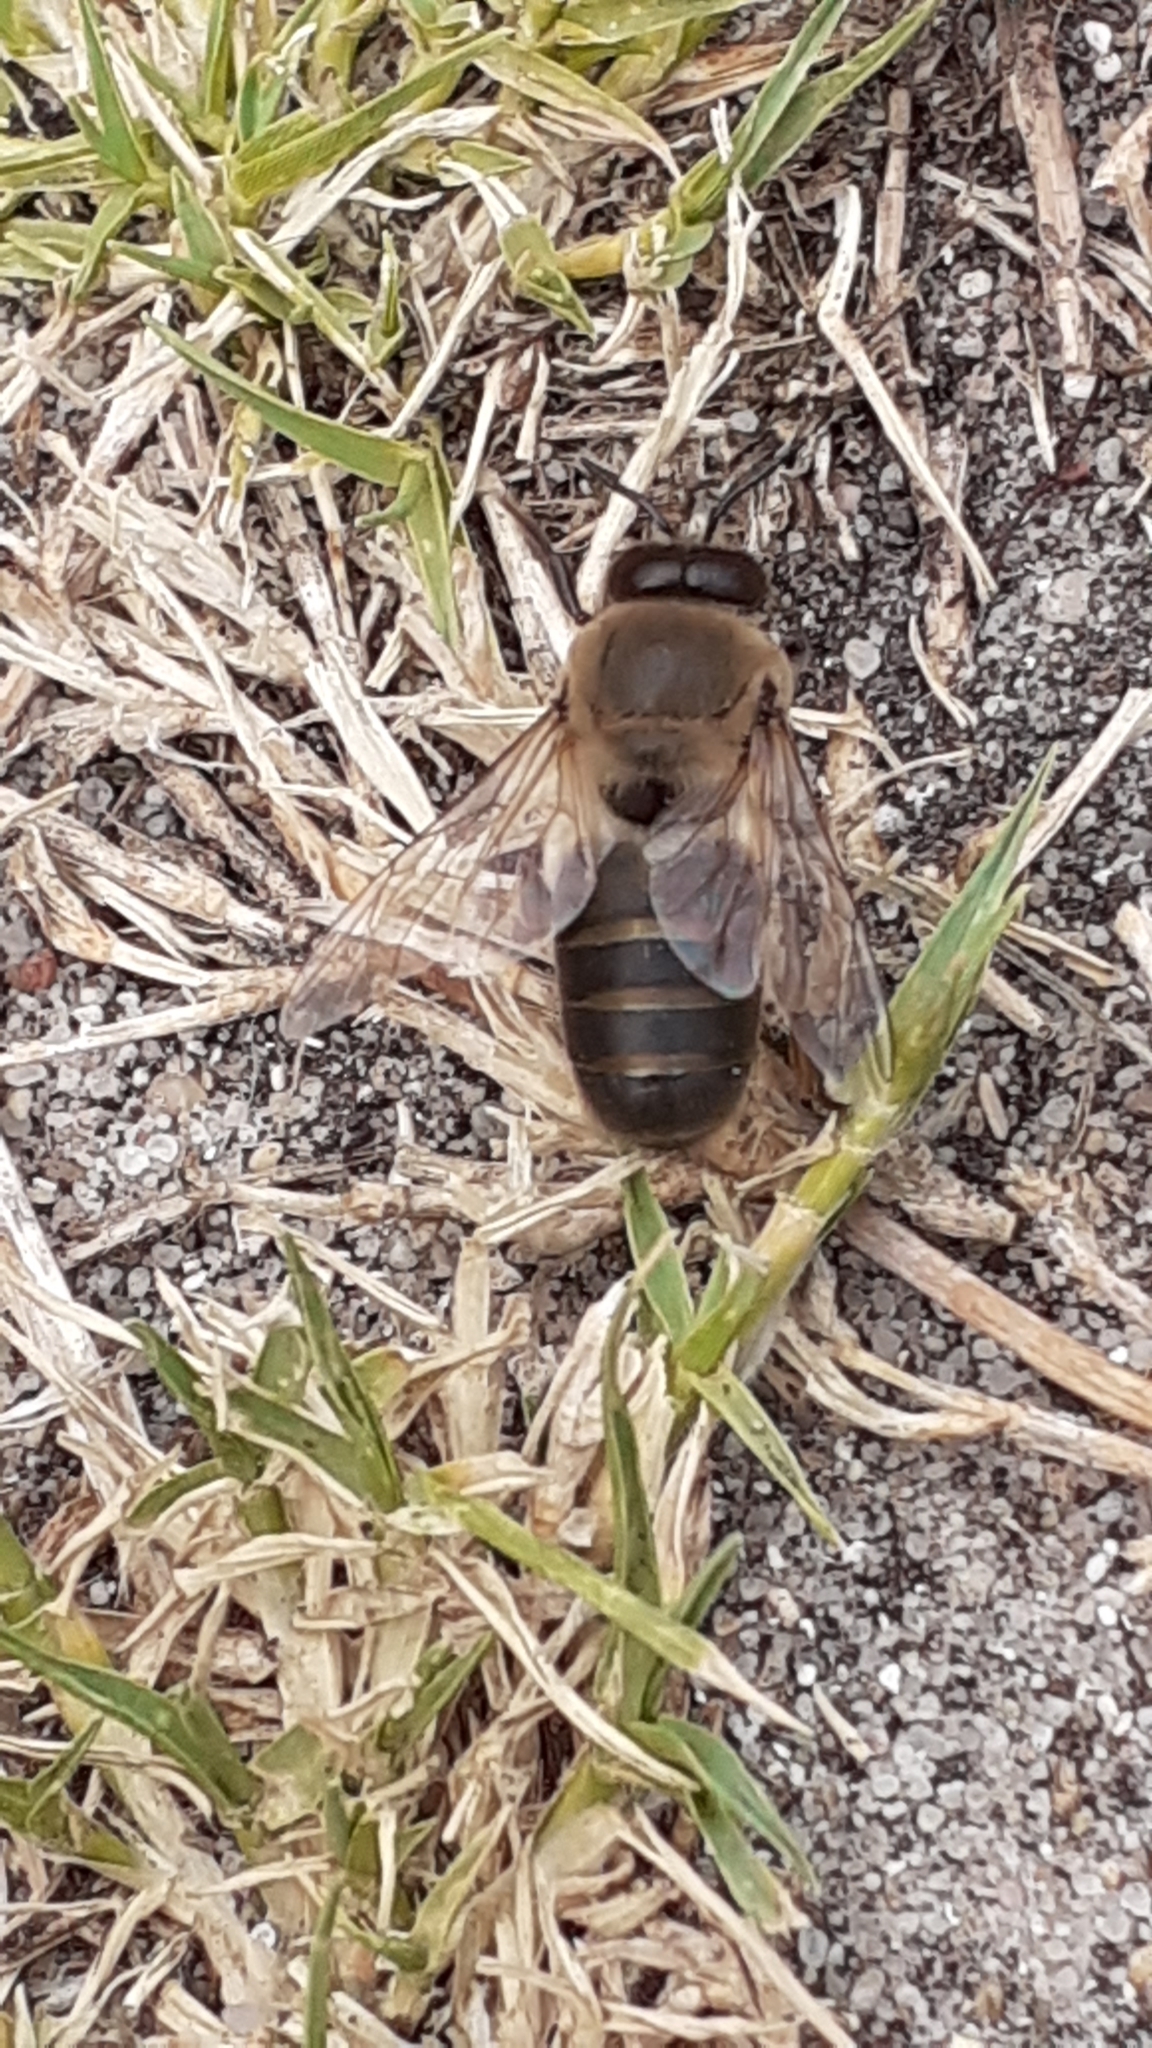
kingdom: Animalia
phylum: Arthropoda
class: Insecta
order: Hymenoptera
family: Apidae
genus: Apis
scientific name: Apis mellifera
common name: Honey bee
